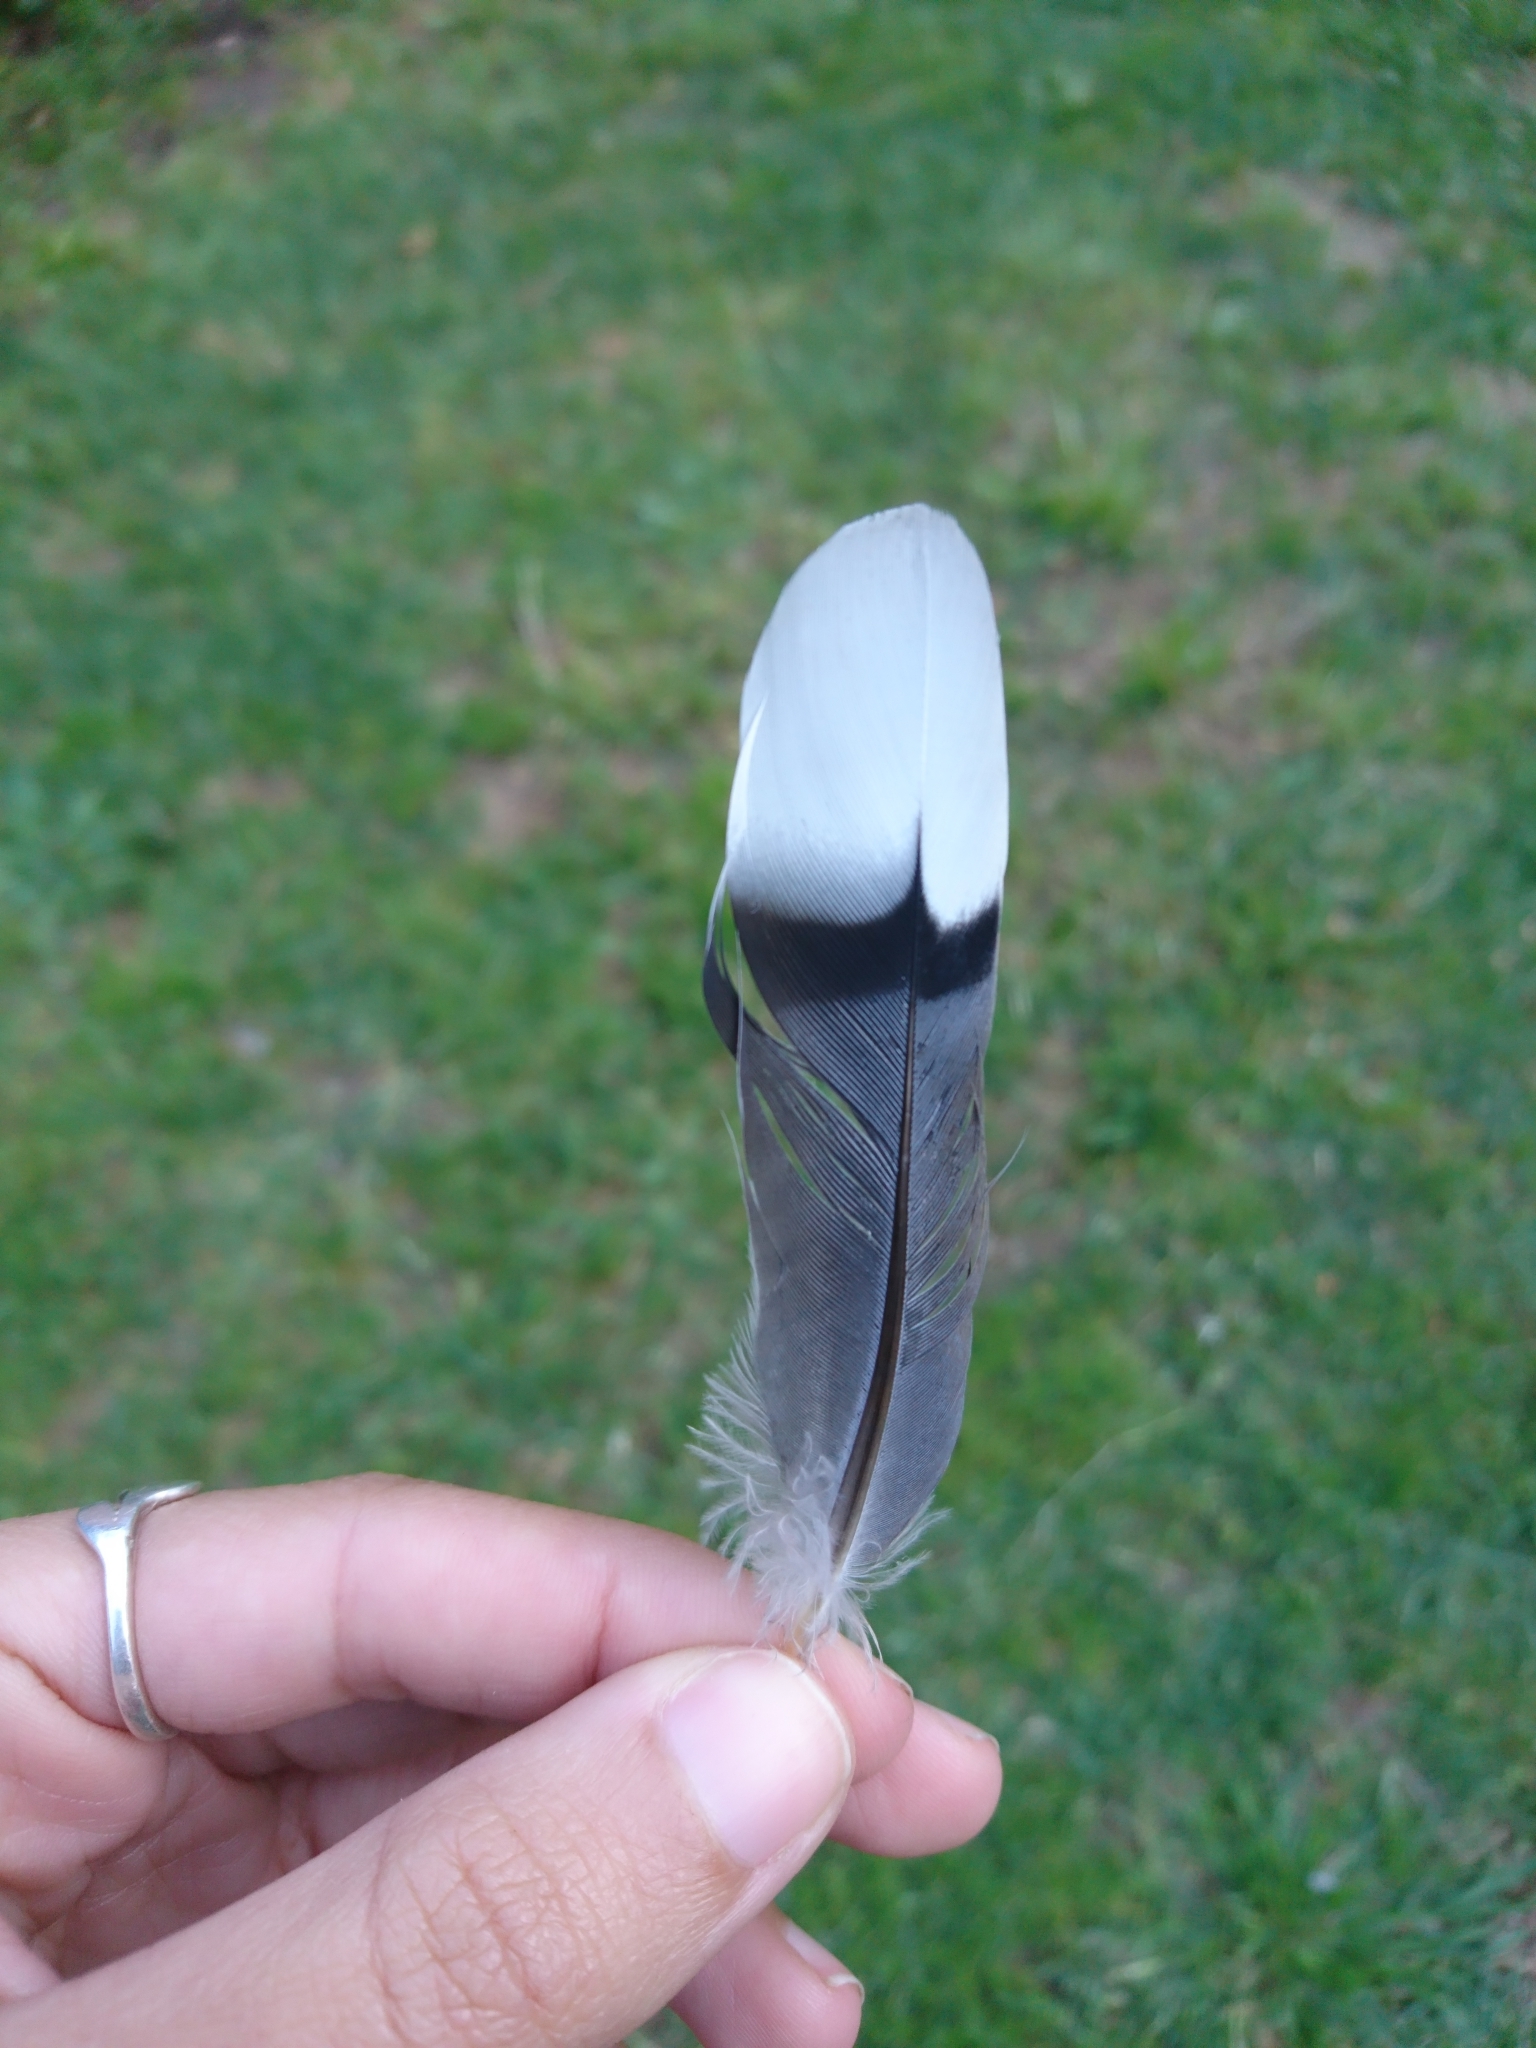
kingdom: Animalia
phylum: Chordata
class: Aves
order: Columbiformes
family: Columbidae
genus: Zenaida
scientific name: Zenaida auriculata
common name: Eared dove
